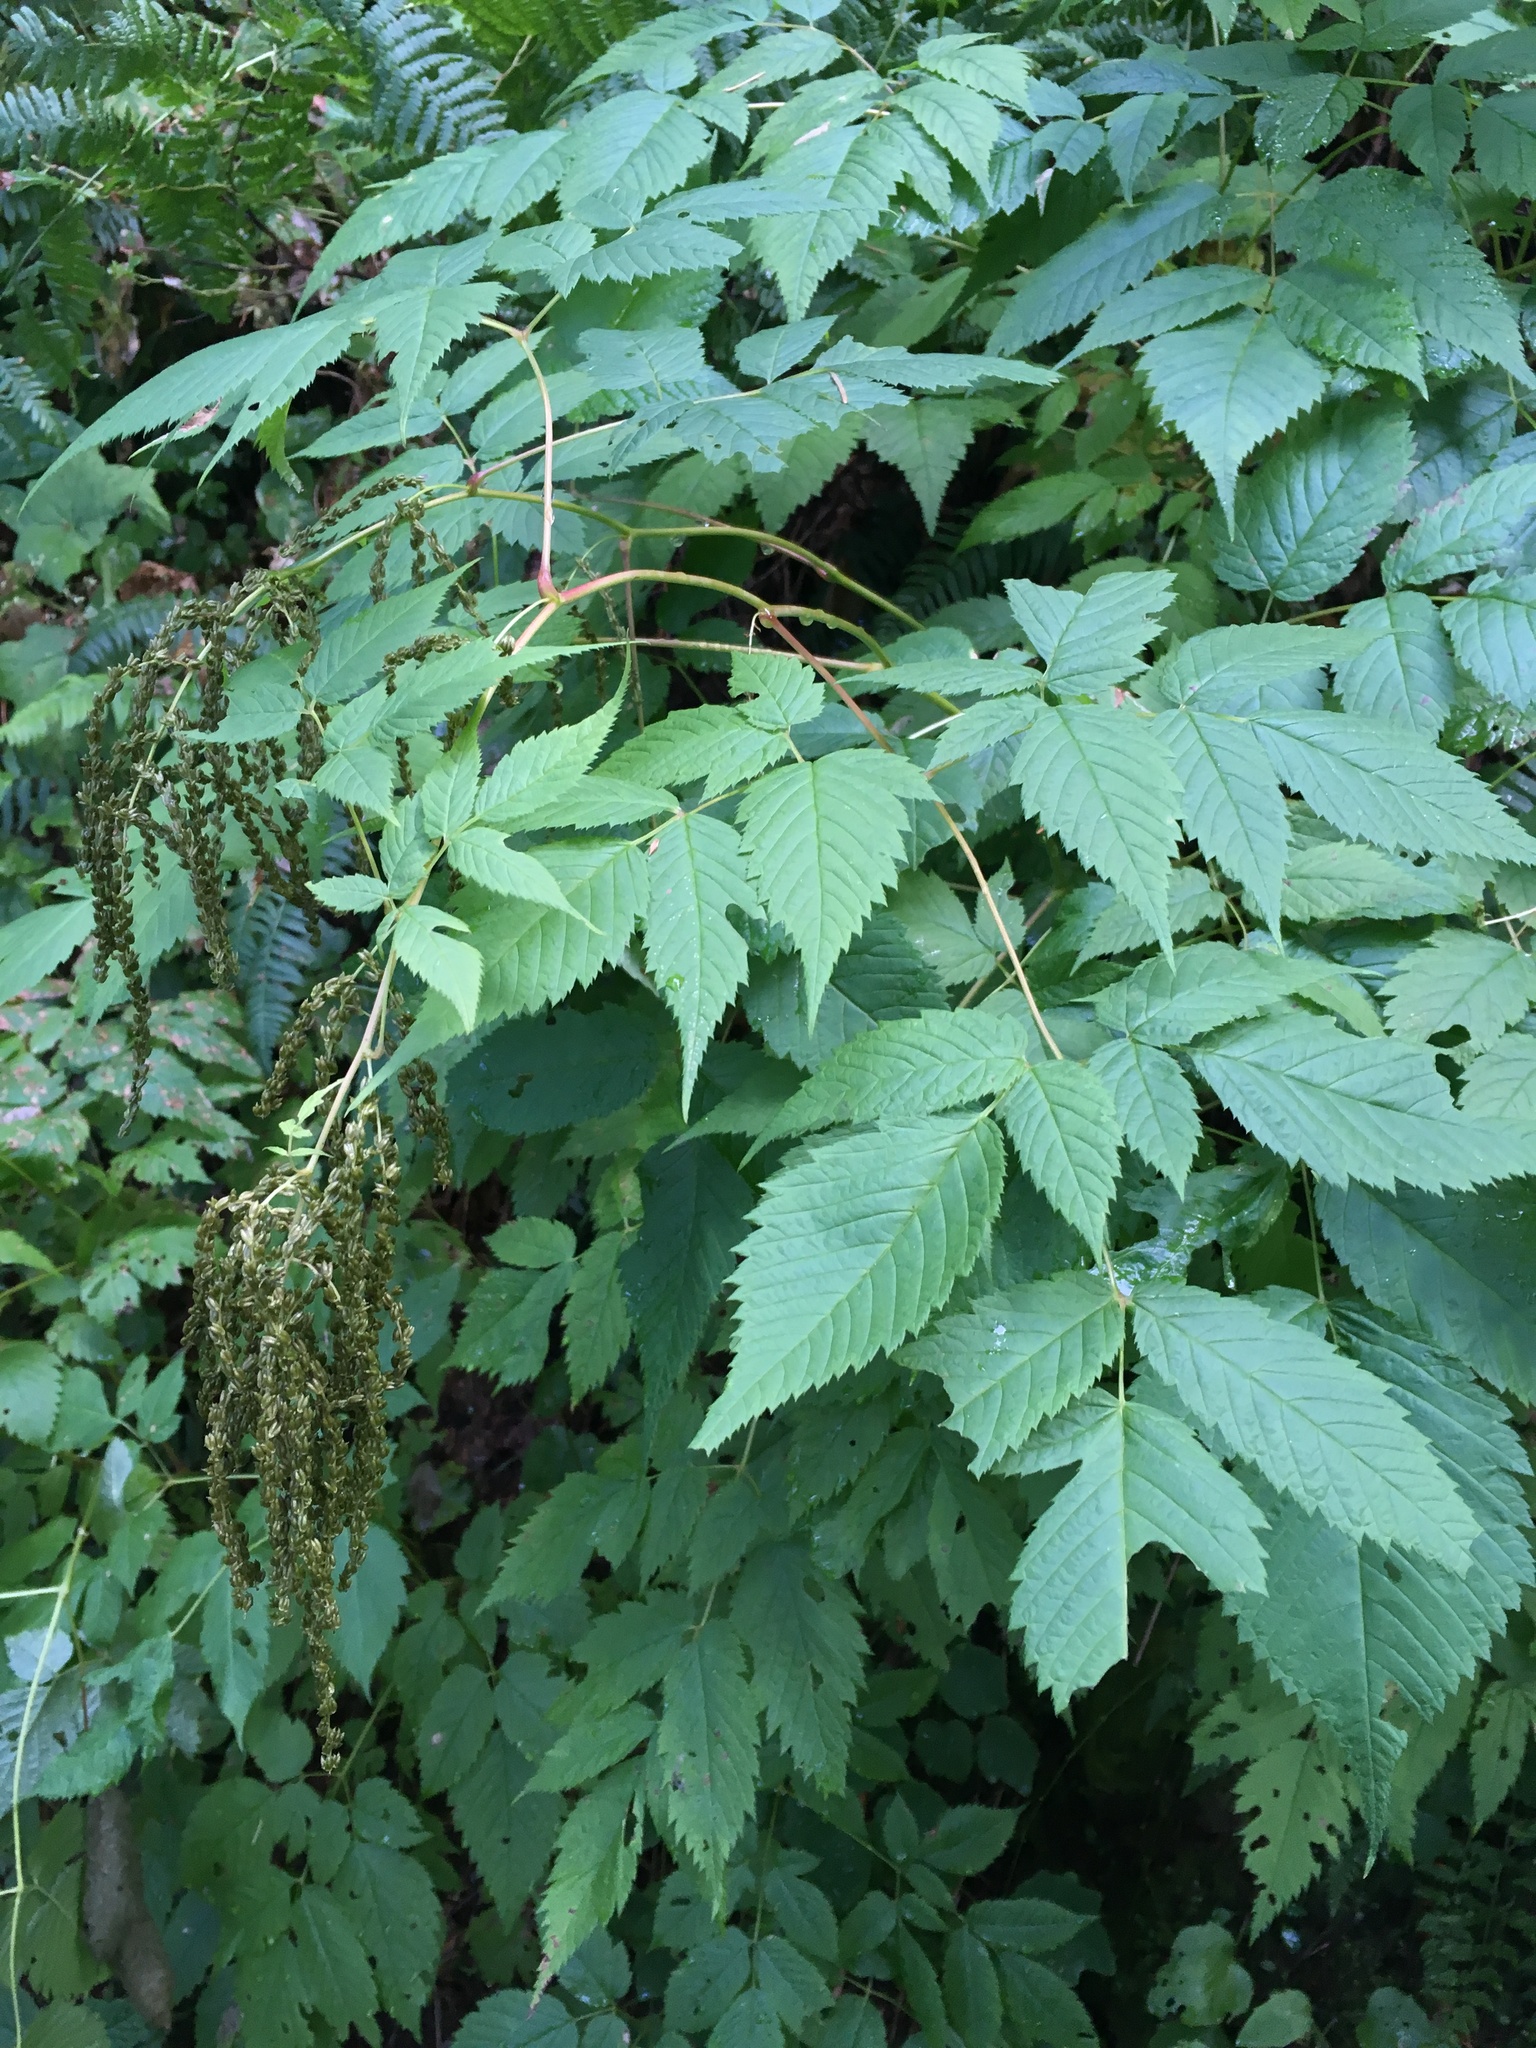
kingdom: Plantae
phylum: Tracheophyta
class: Magnoliopsida
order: Rosales
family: Rosaceae
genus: Aruncus
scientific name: Aruncus dioicus
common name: Buck's-beard
